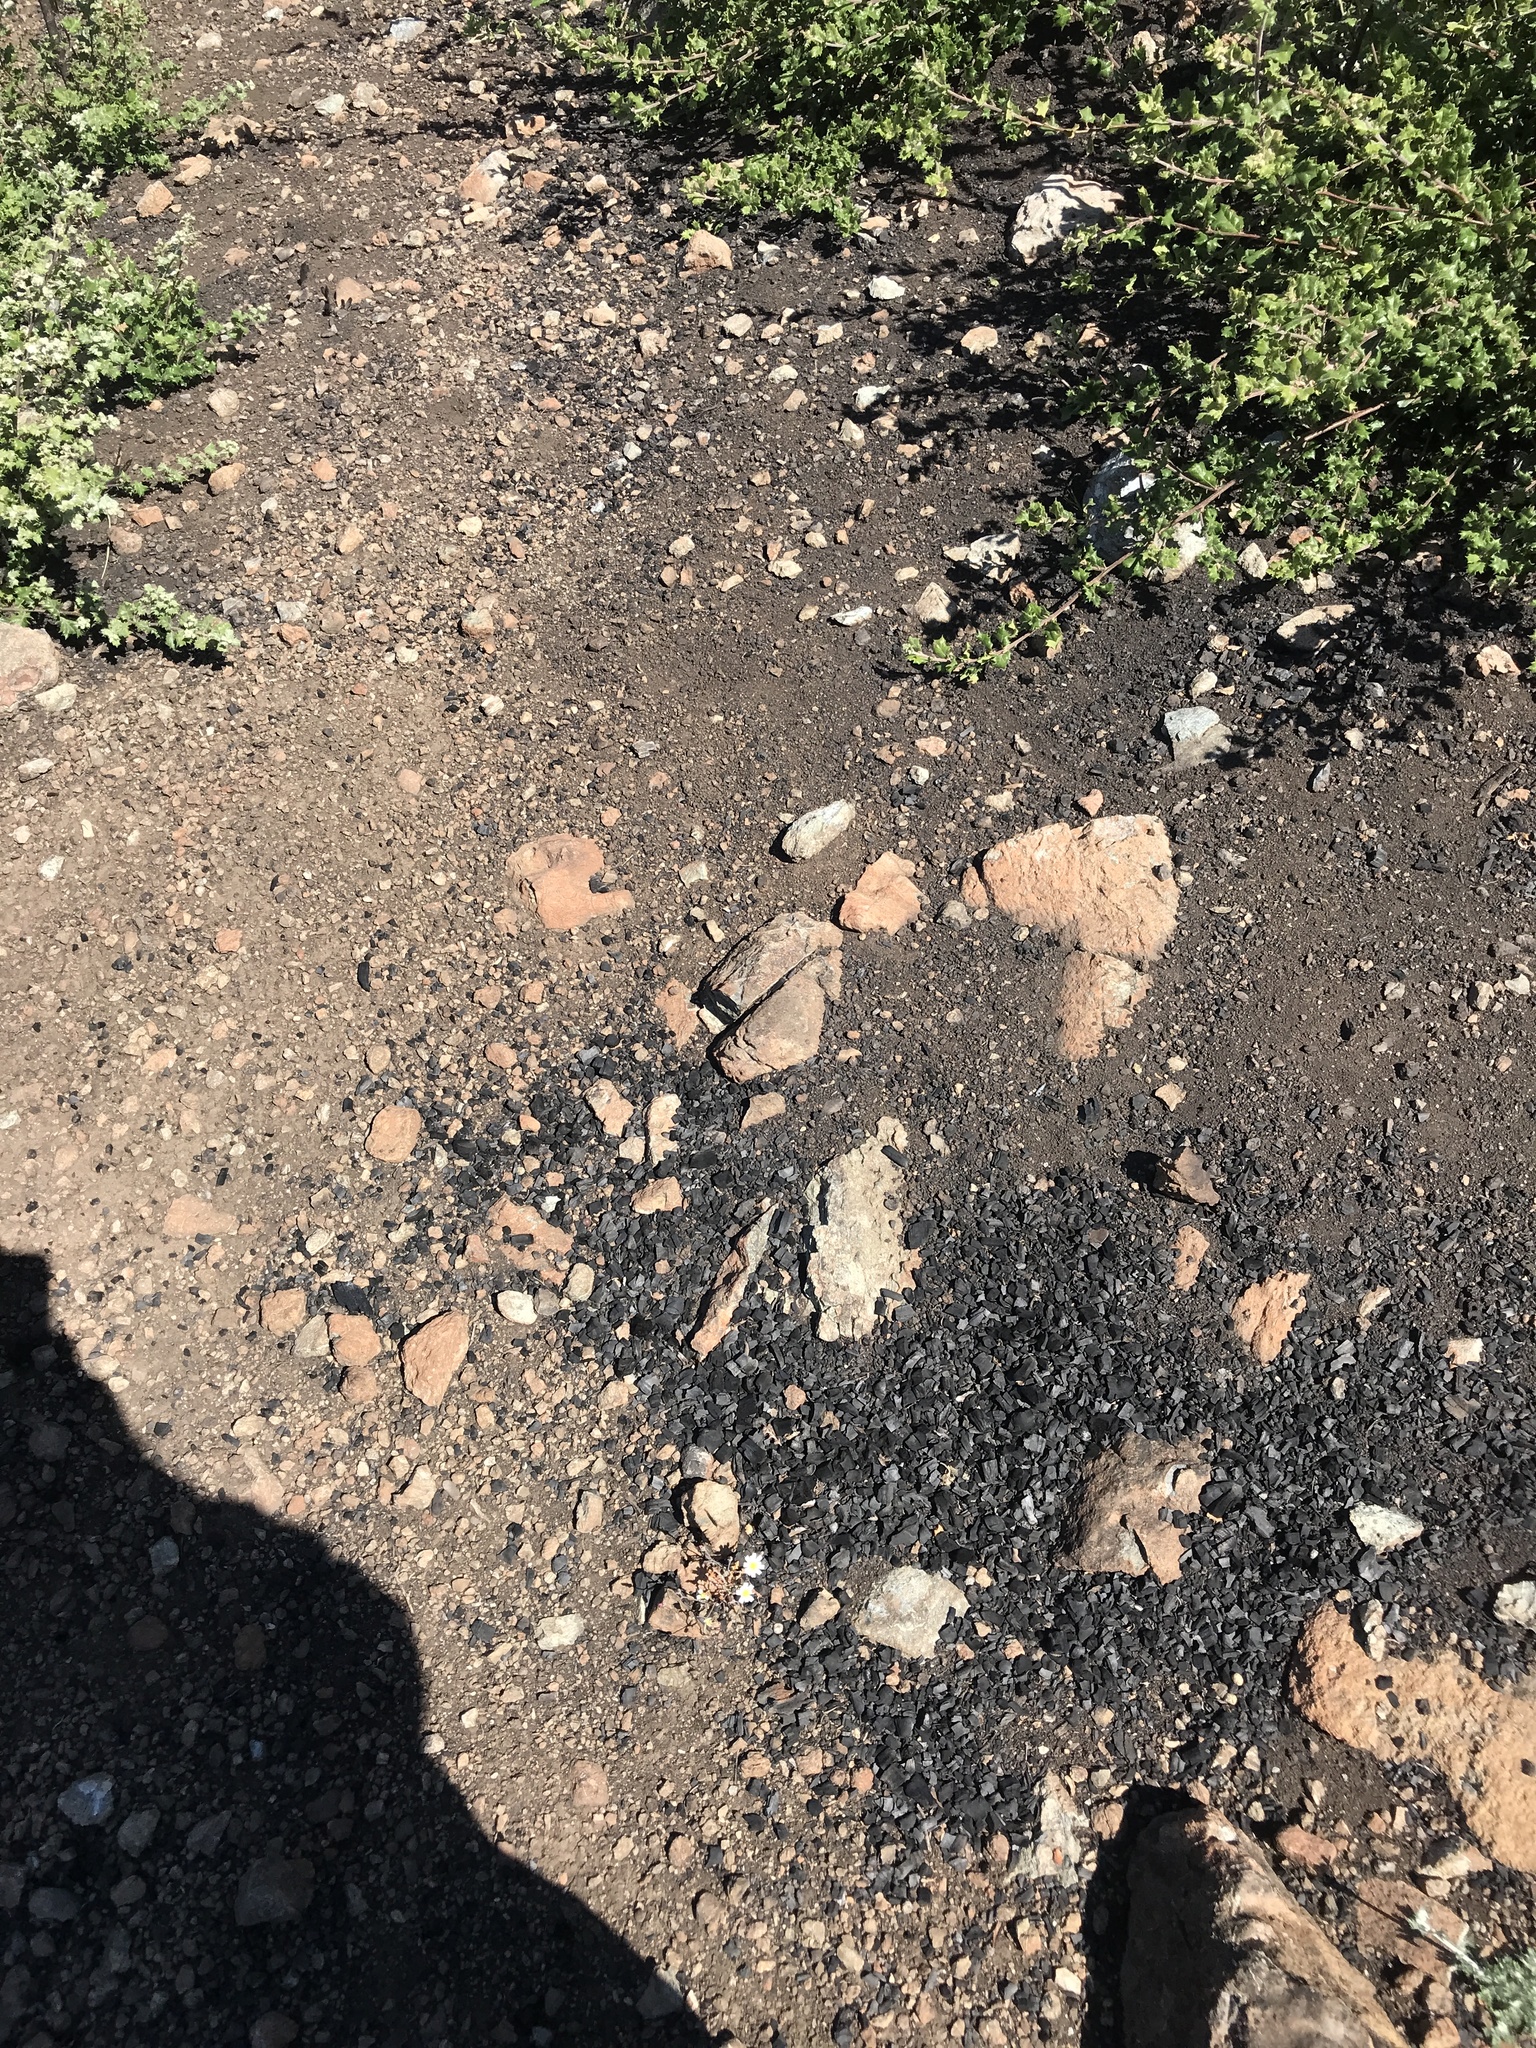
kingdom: Plantae
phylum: Tracheophyta
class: Magnoliopsida
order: Asterales
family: Asteraceae
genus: Malacothrix
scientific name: Malacothrix floccifera
